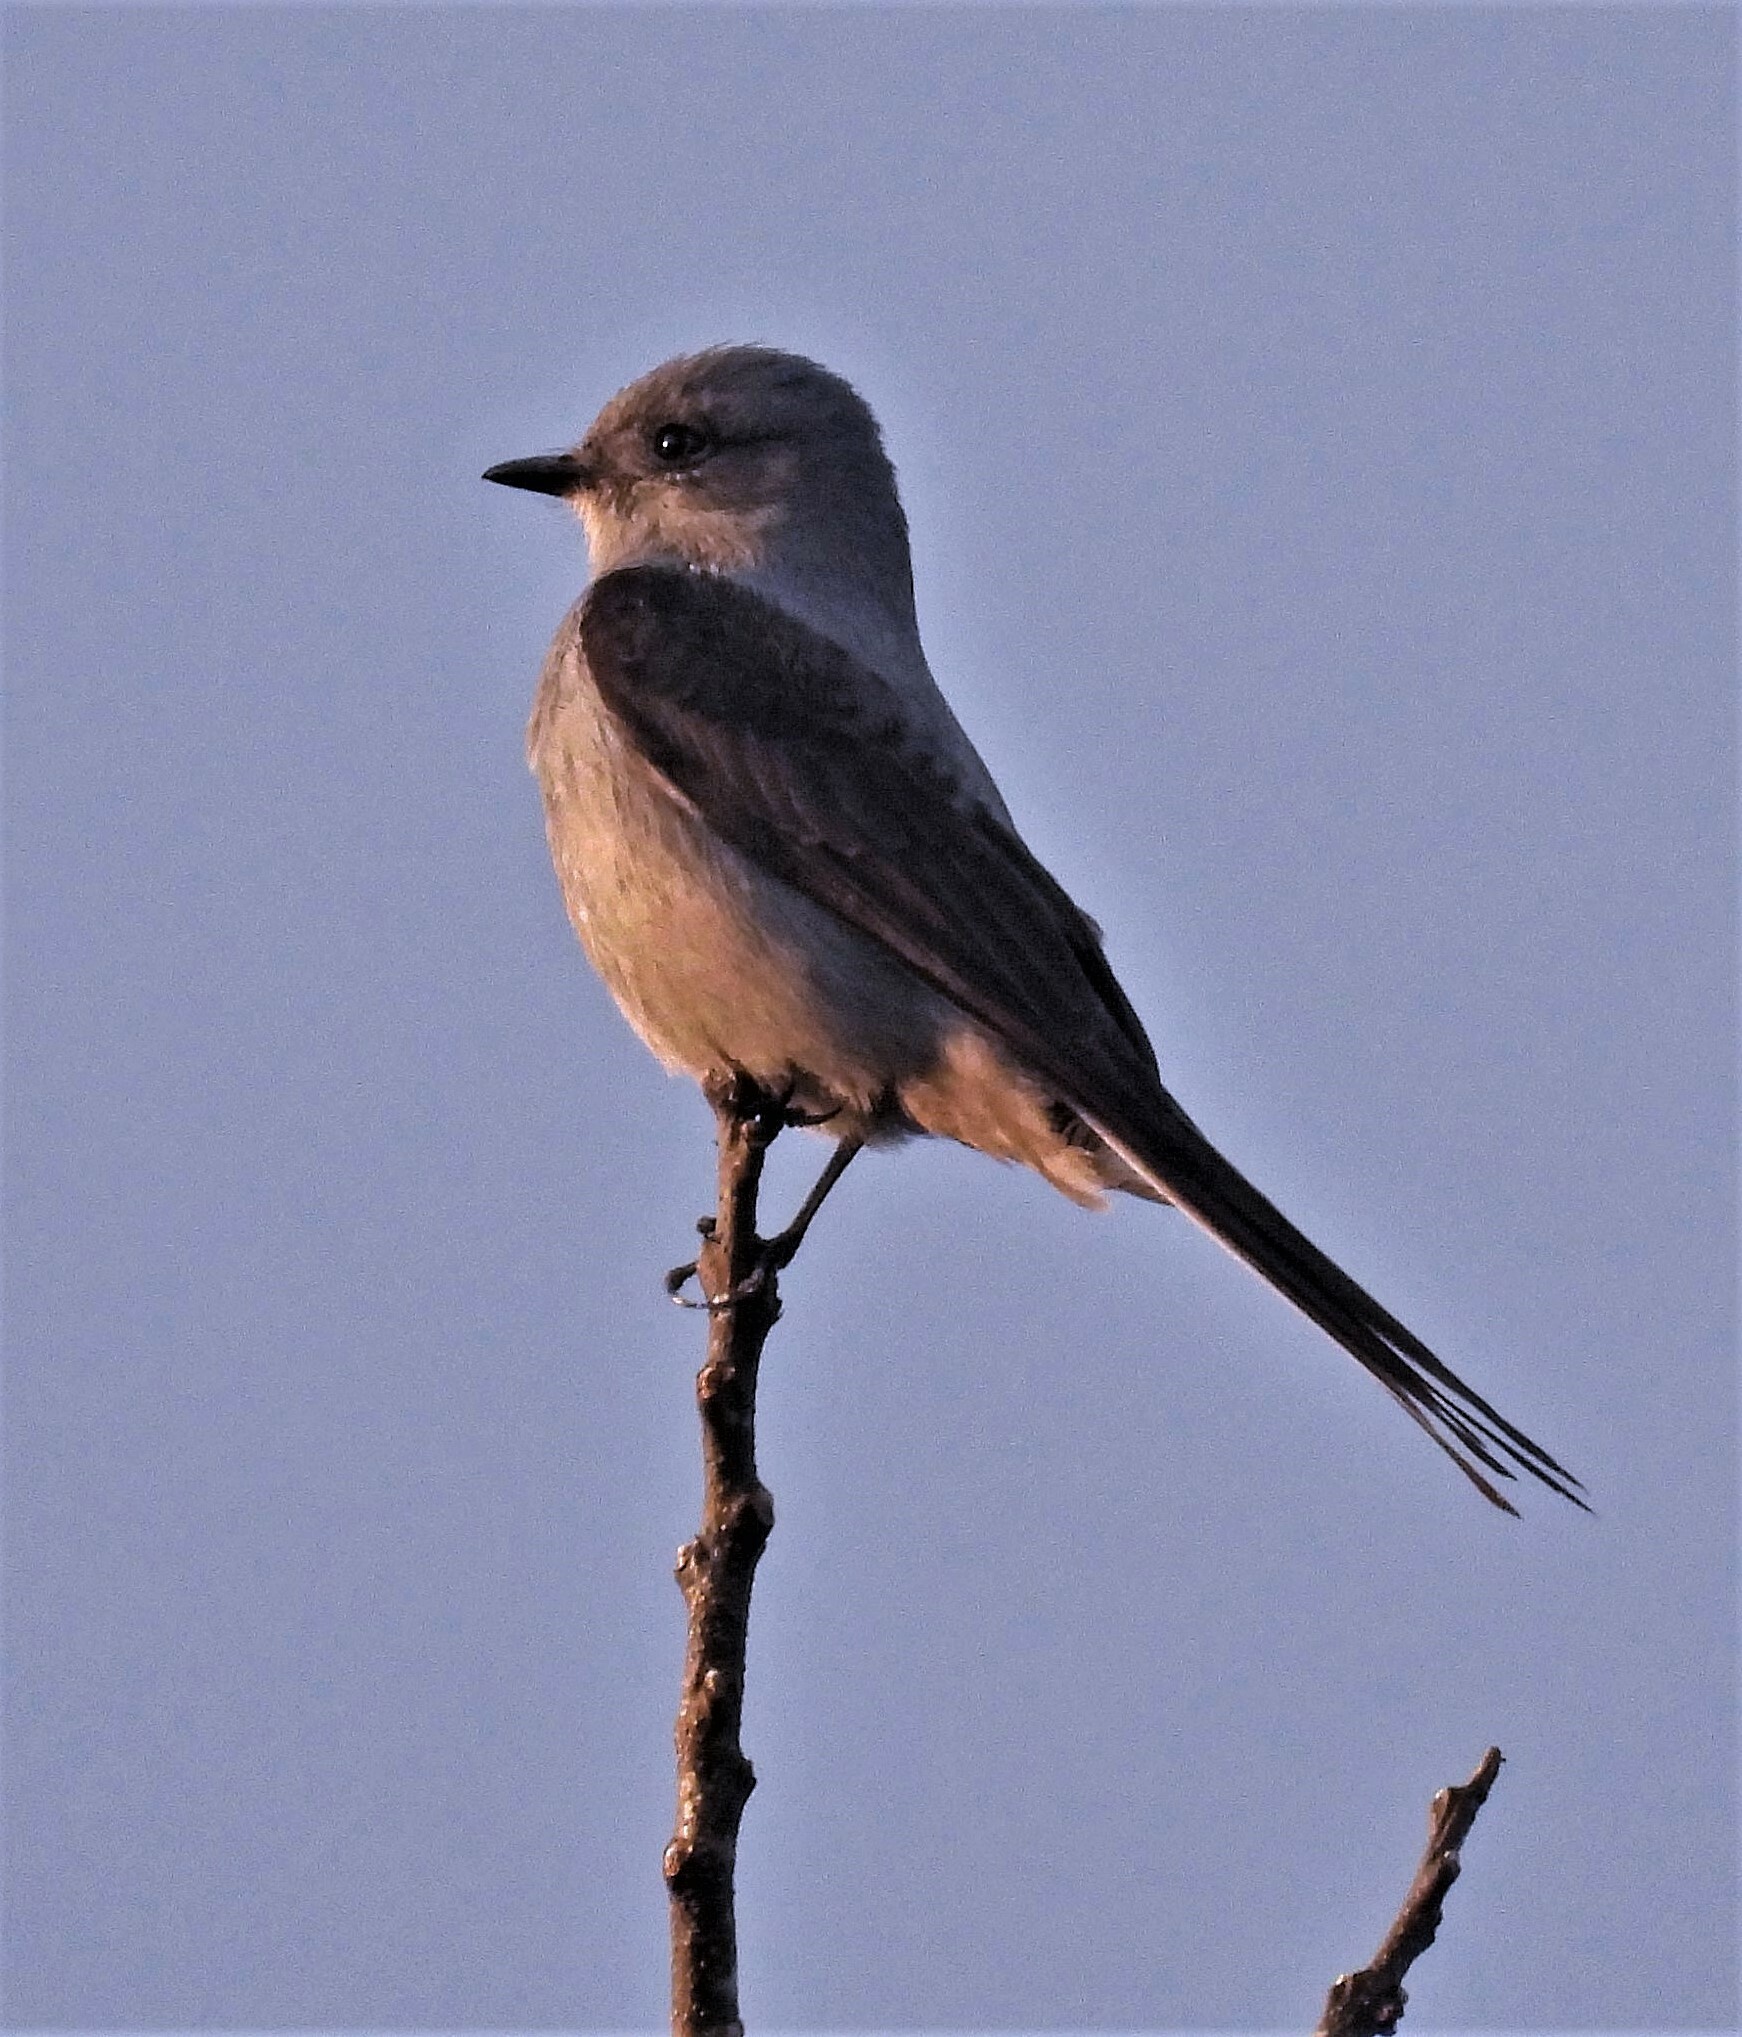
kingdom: Animalia
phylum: Chordata
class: Aves
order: Passeriformes
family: Tyrannidae
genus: Muscipipra
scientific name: Muscipipra vetula
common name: Shear-tailed grey tyrant
